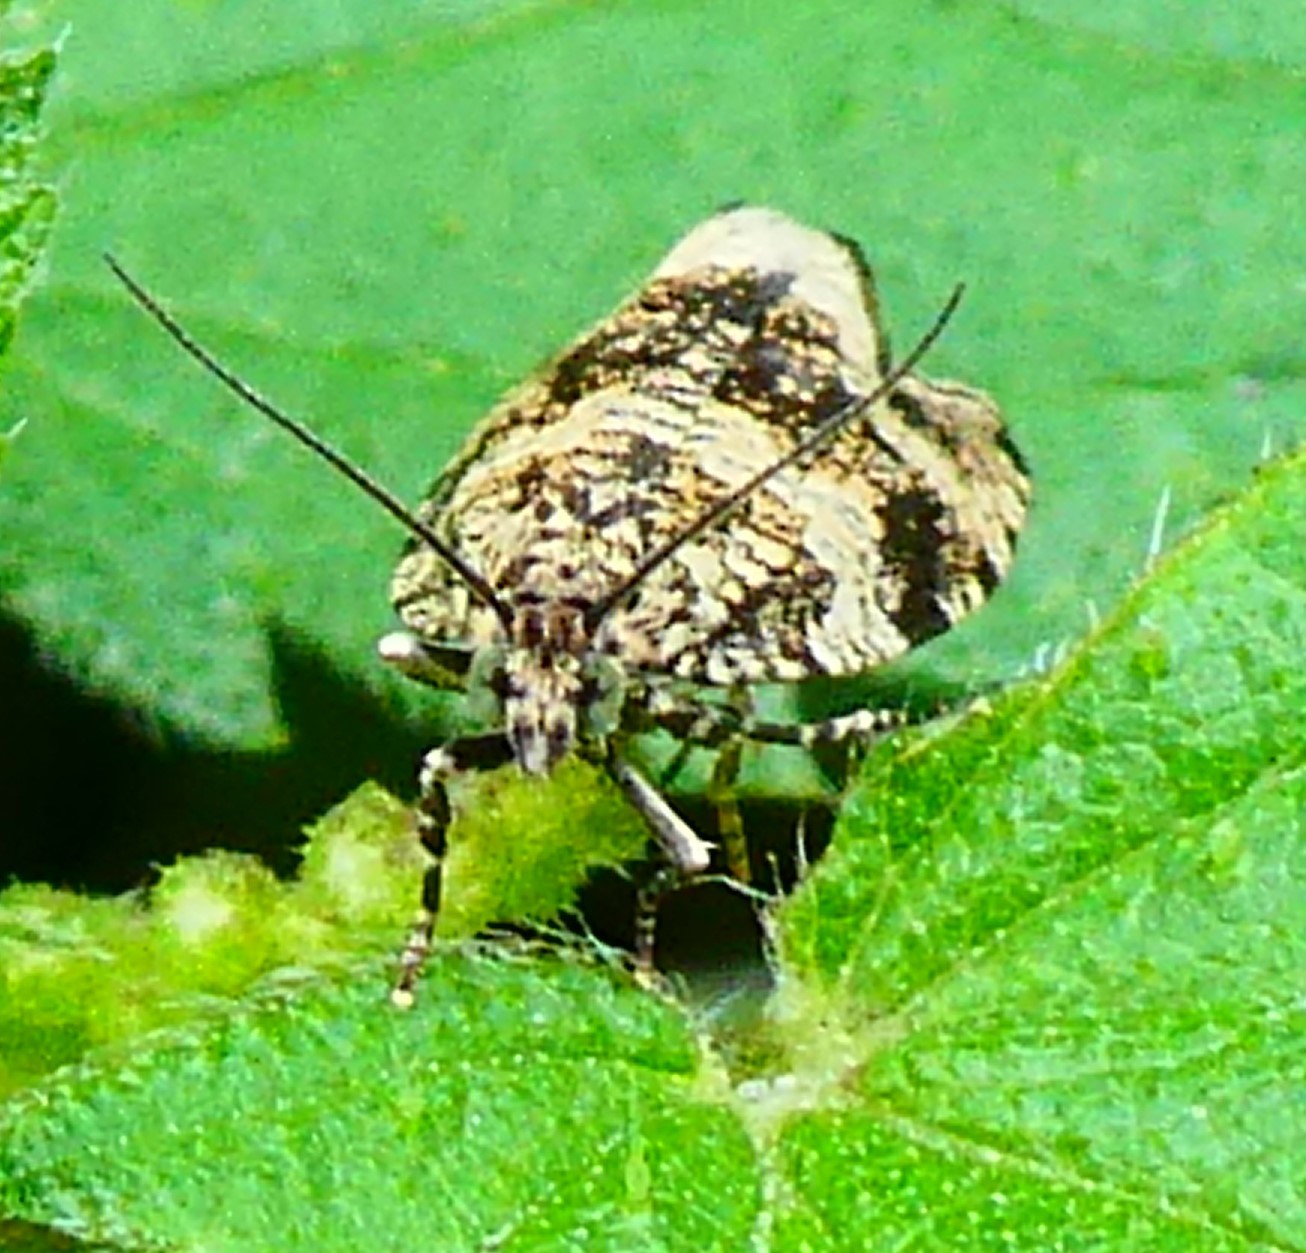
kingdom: Animalia
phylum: Arthropoda
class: Insecta
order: Lepidoptera
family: Tortricidae
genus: Syricoris
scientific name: Syricoris lacunana
